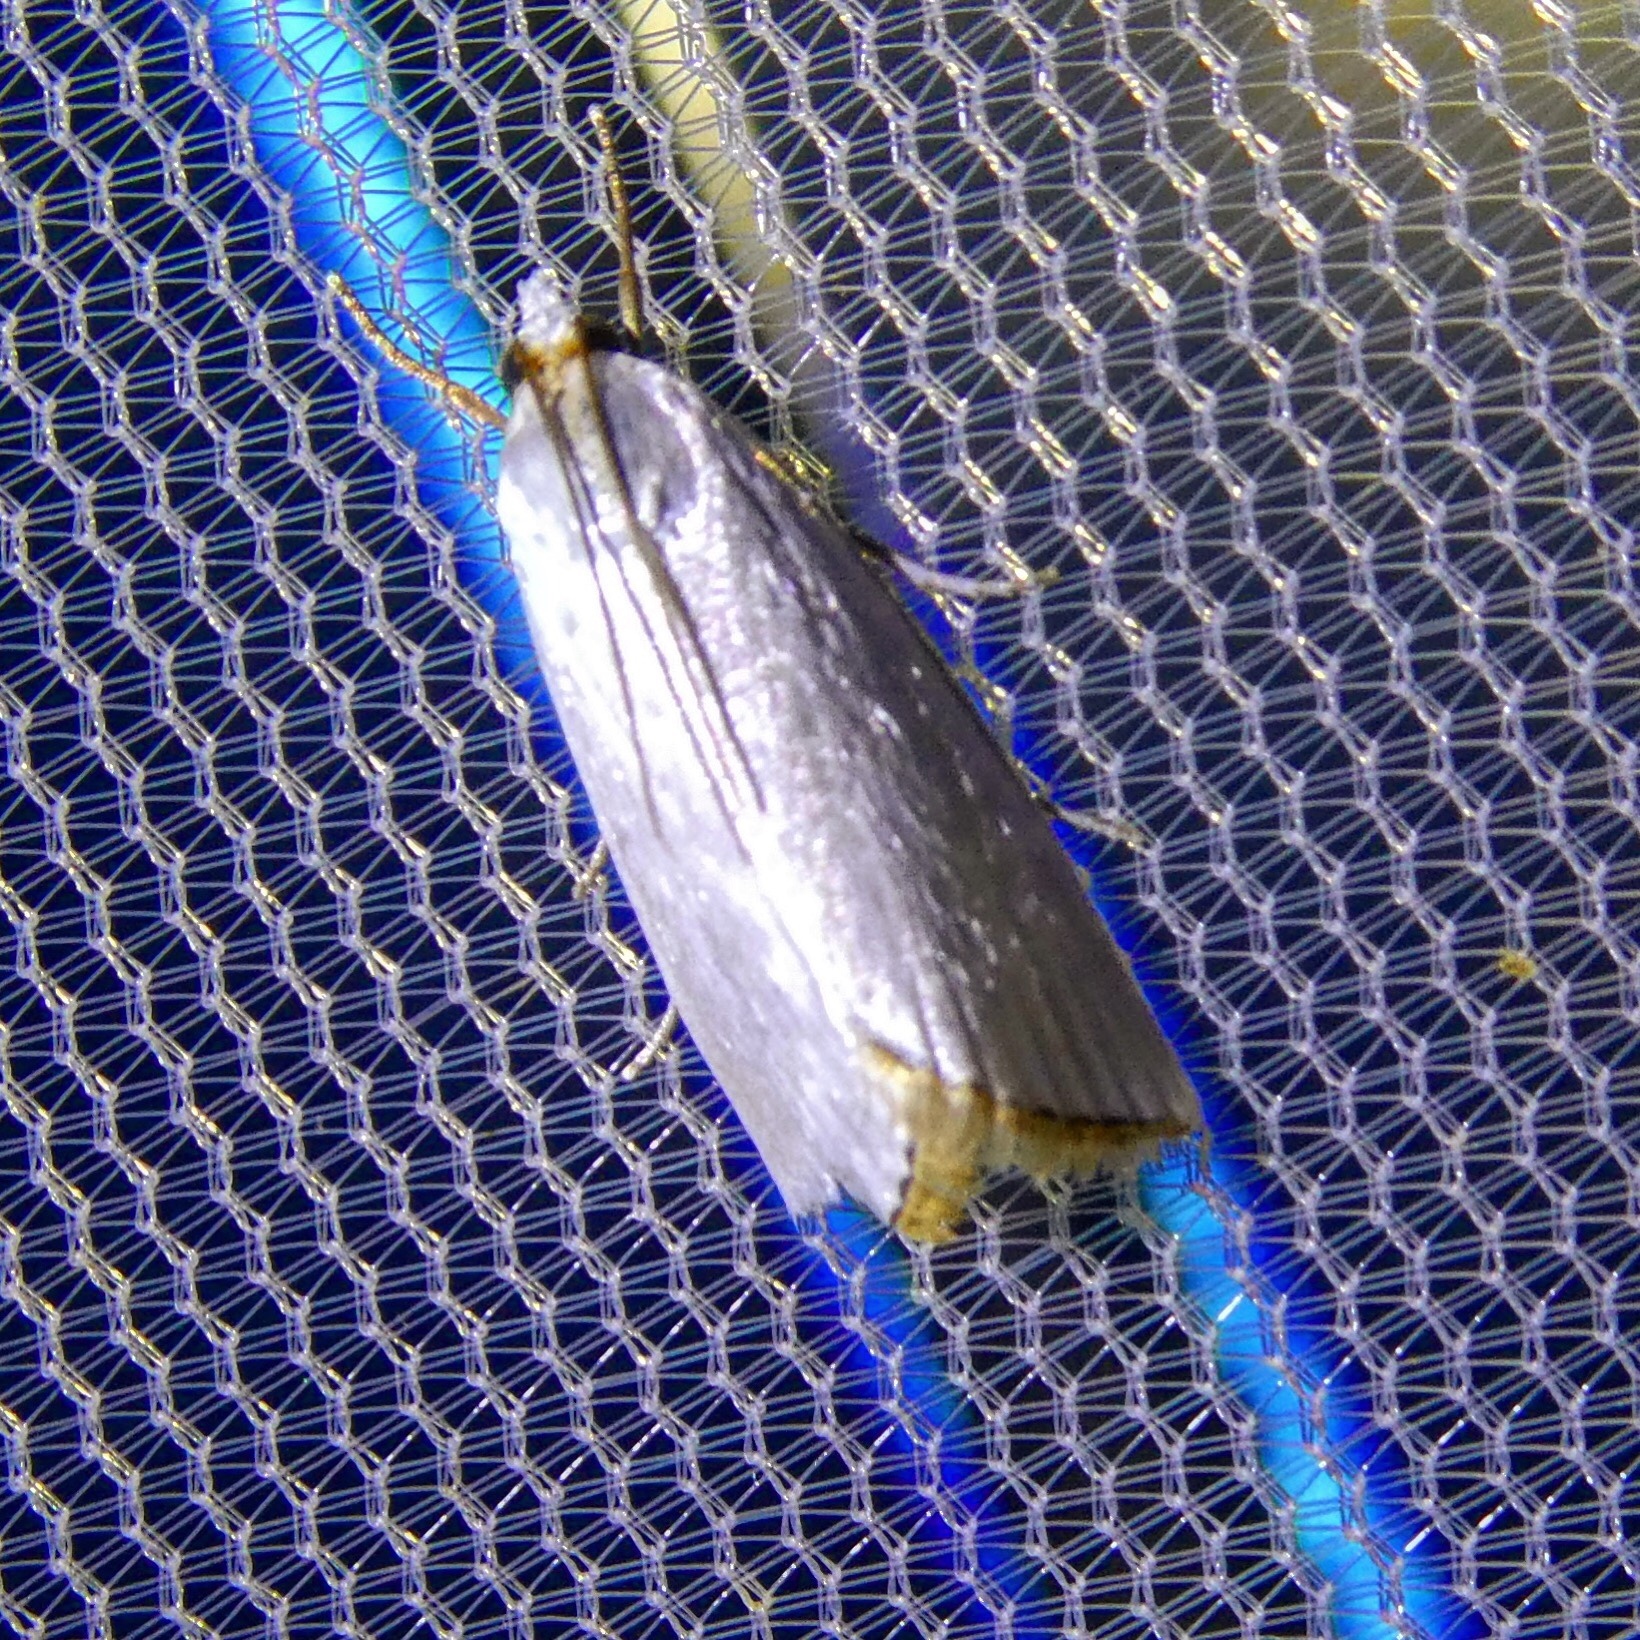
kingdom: Animalia
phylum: Arthropoda
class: Insecta
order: Lepidoptera
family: Crambidae
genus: Argyria
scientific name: Argyria nivalis
